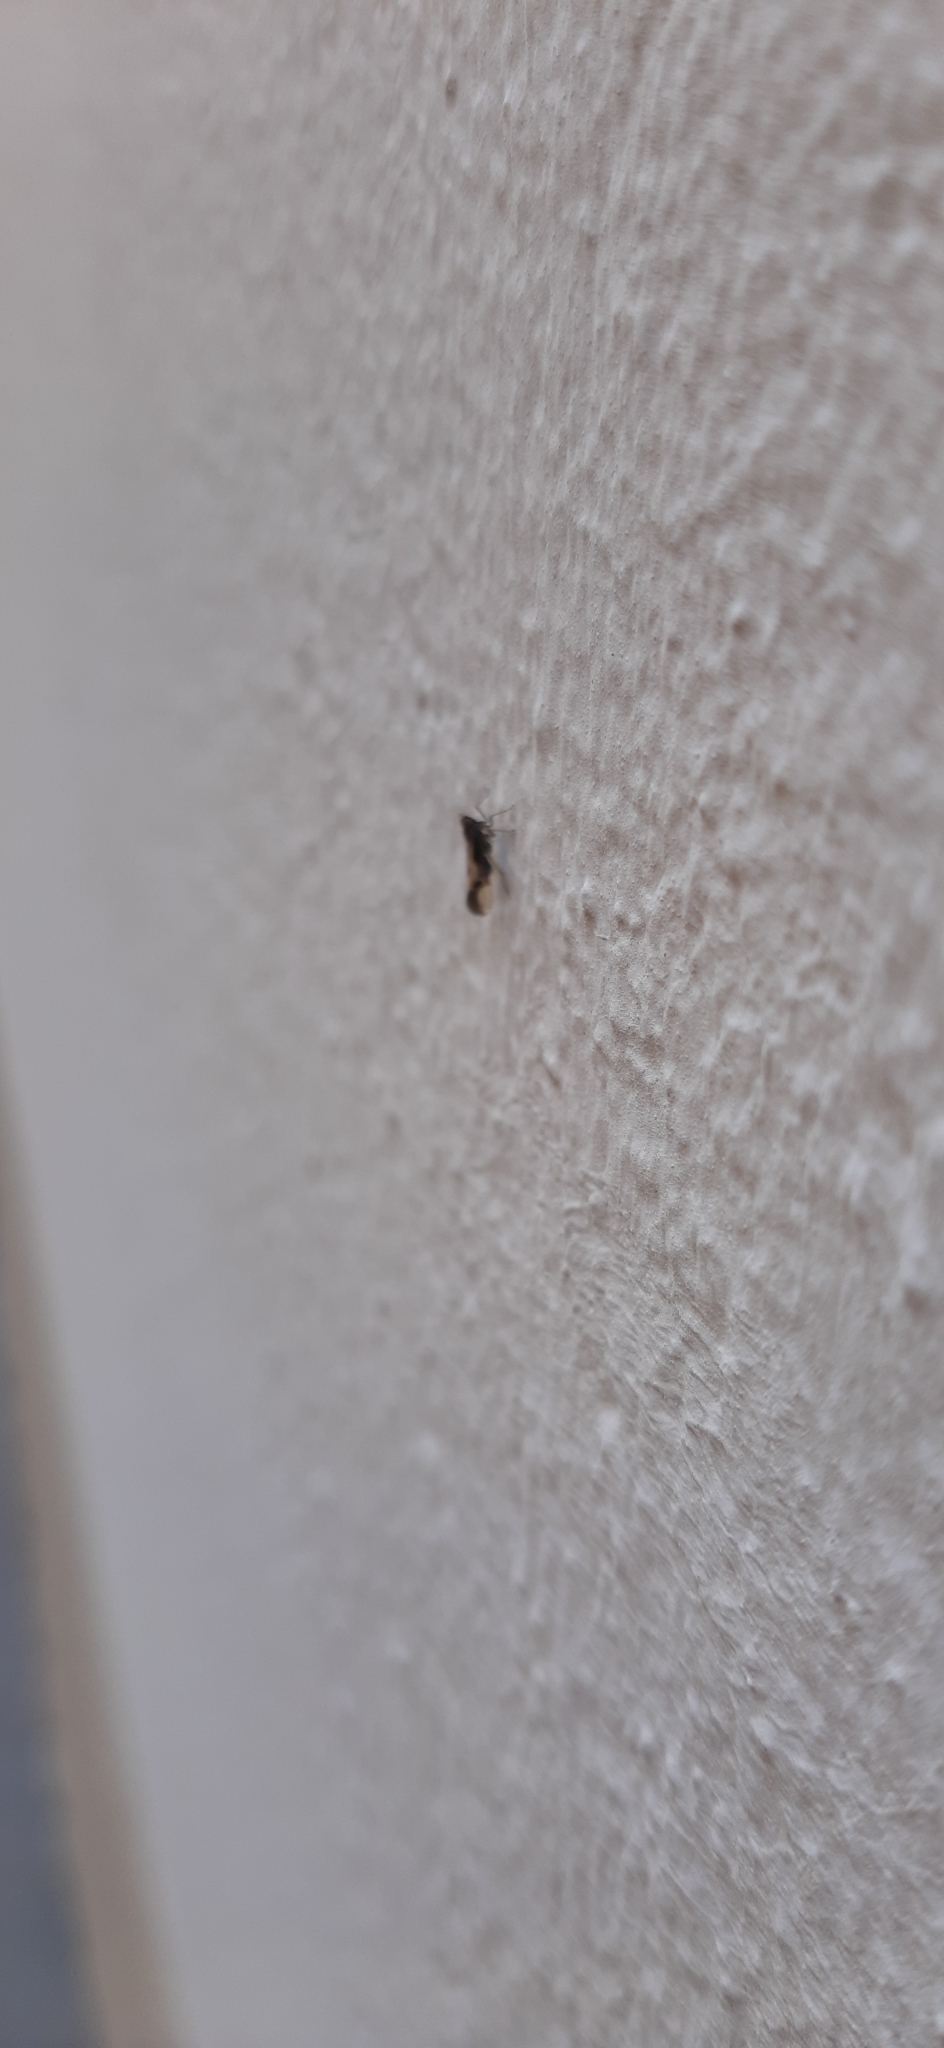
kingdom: Animalia
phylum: Arthropoda
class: Insecta
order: Hemiptera
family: Delphacidae
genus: Euides
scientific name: Euides basilinea
